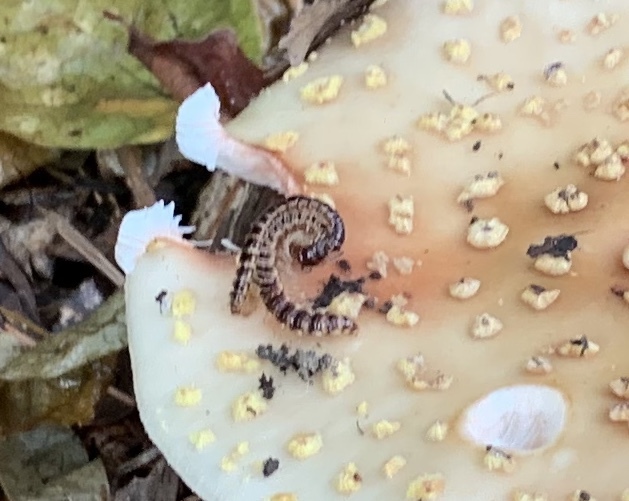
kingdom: Animalia
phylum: Arthropoda
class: Diplopoda
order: Polydesmida
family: Paradoxosomatidae
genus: Oxidus
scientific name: Oxidus gracilis
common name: Greenhouse millipede
